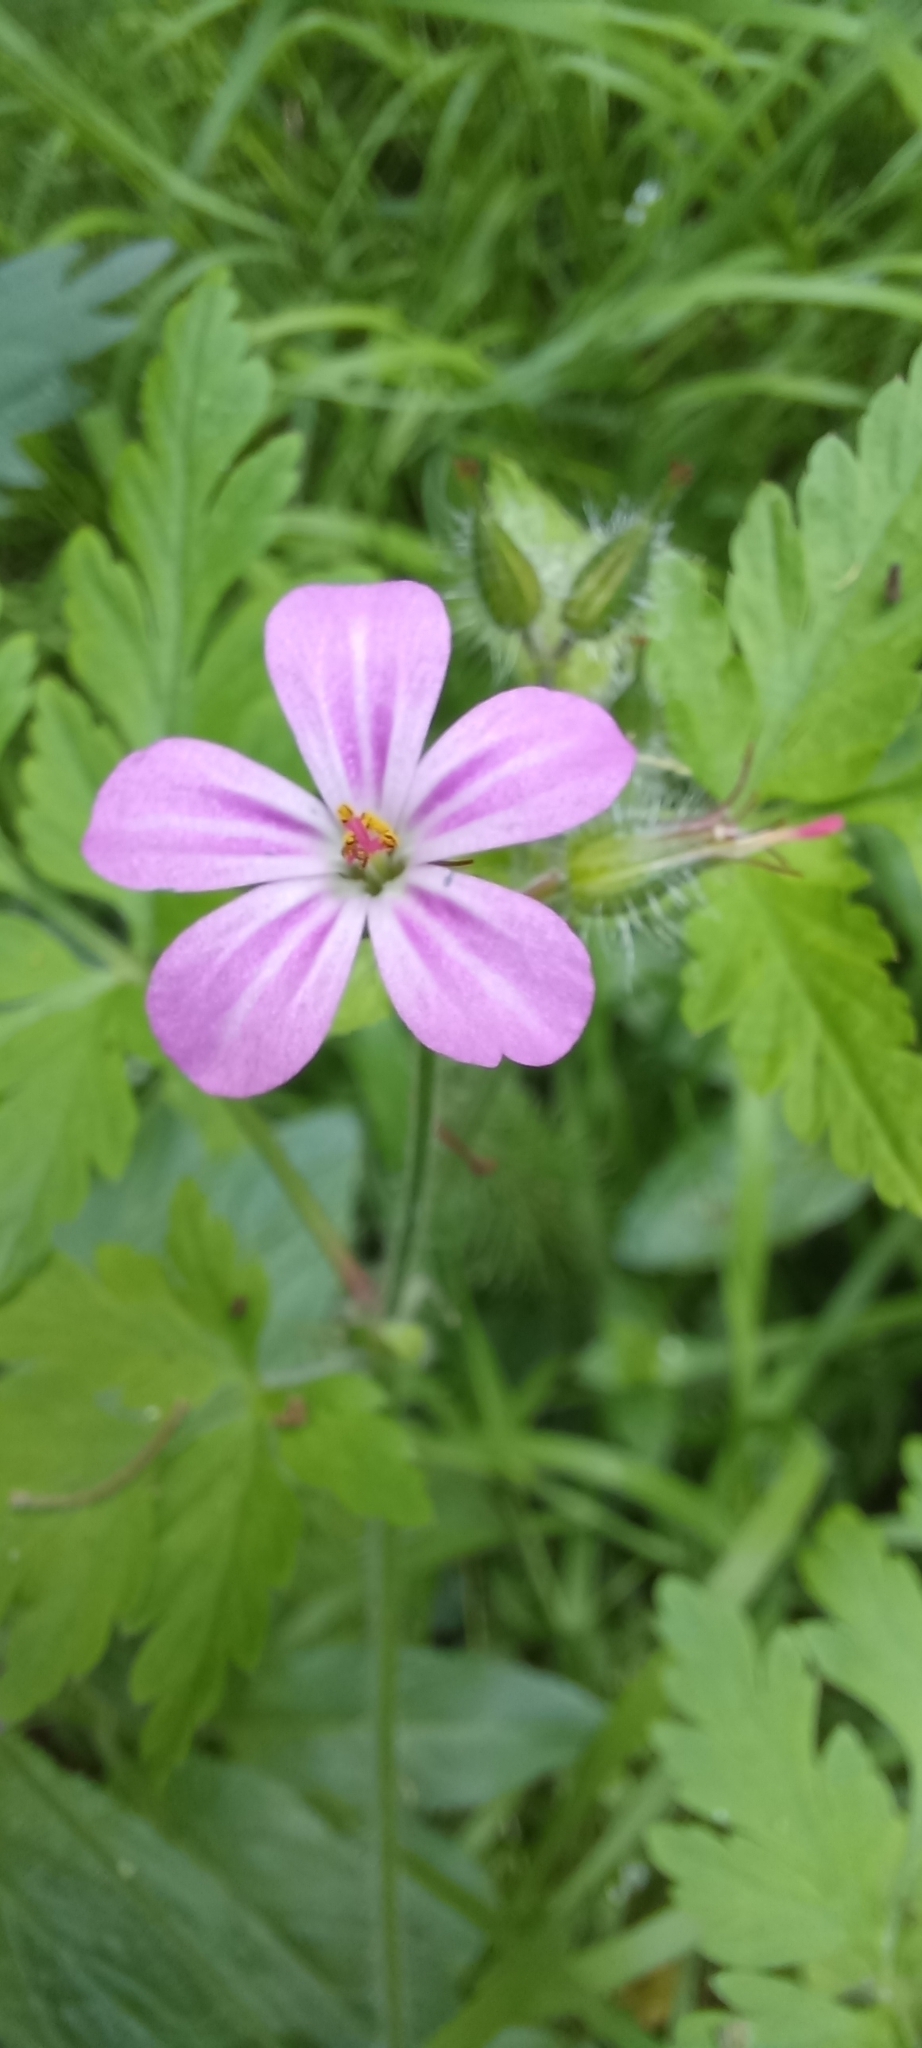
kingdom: Plantae
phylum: Tracheophyta
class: Magnoliopsida
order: Geraniales
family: Geraniaceae
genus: Geranium
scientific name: Geranium robertianum
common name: Herb-robert
